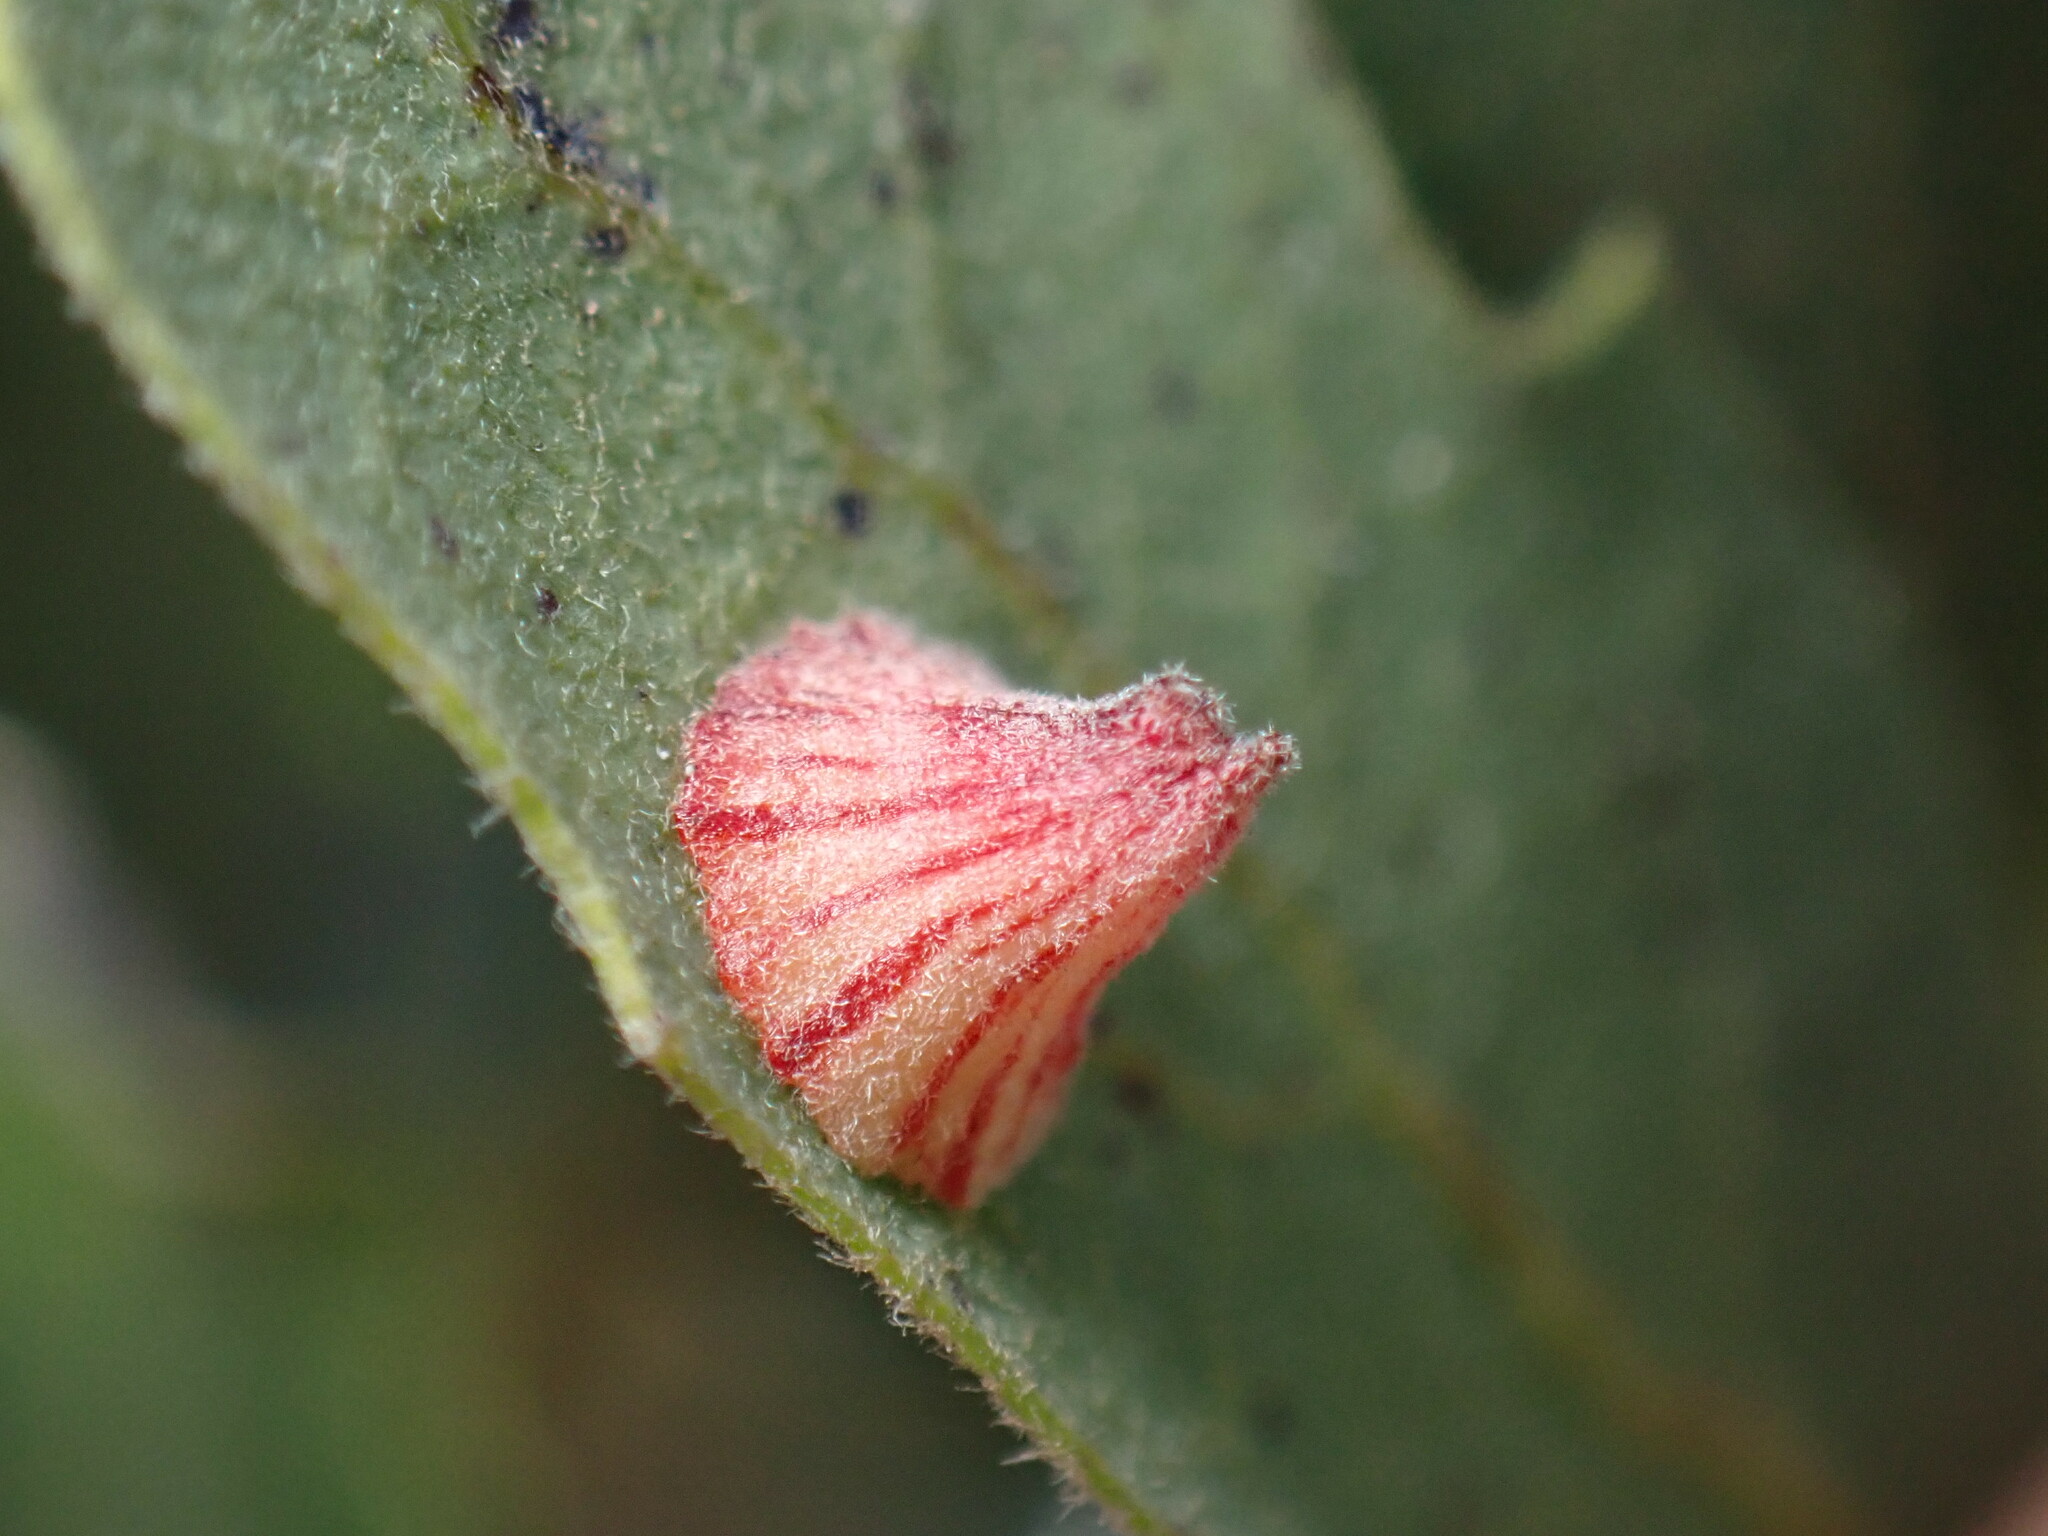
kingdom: Animalia
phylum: Arthropoda
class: Insecta
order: Hymenoptera
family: Cynipidae
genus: Andricus
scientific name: Andricus
